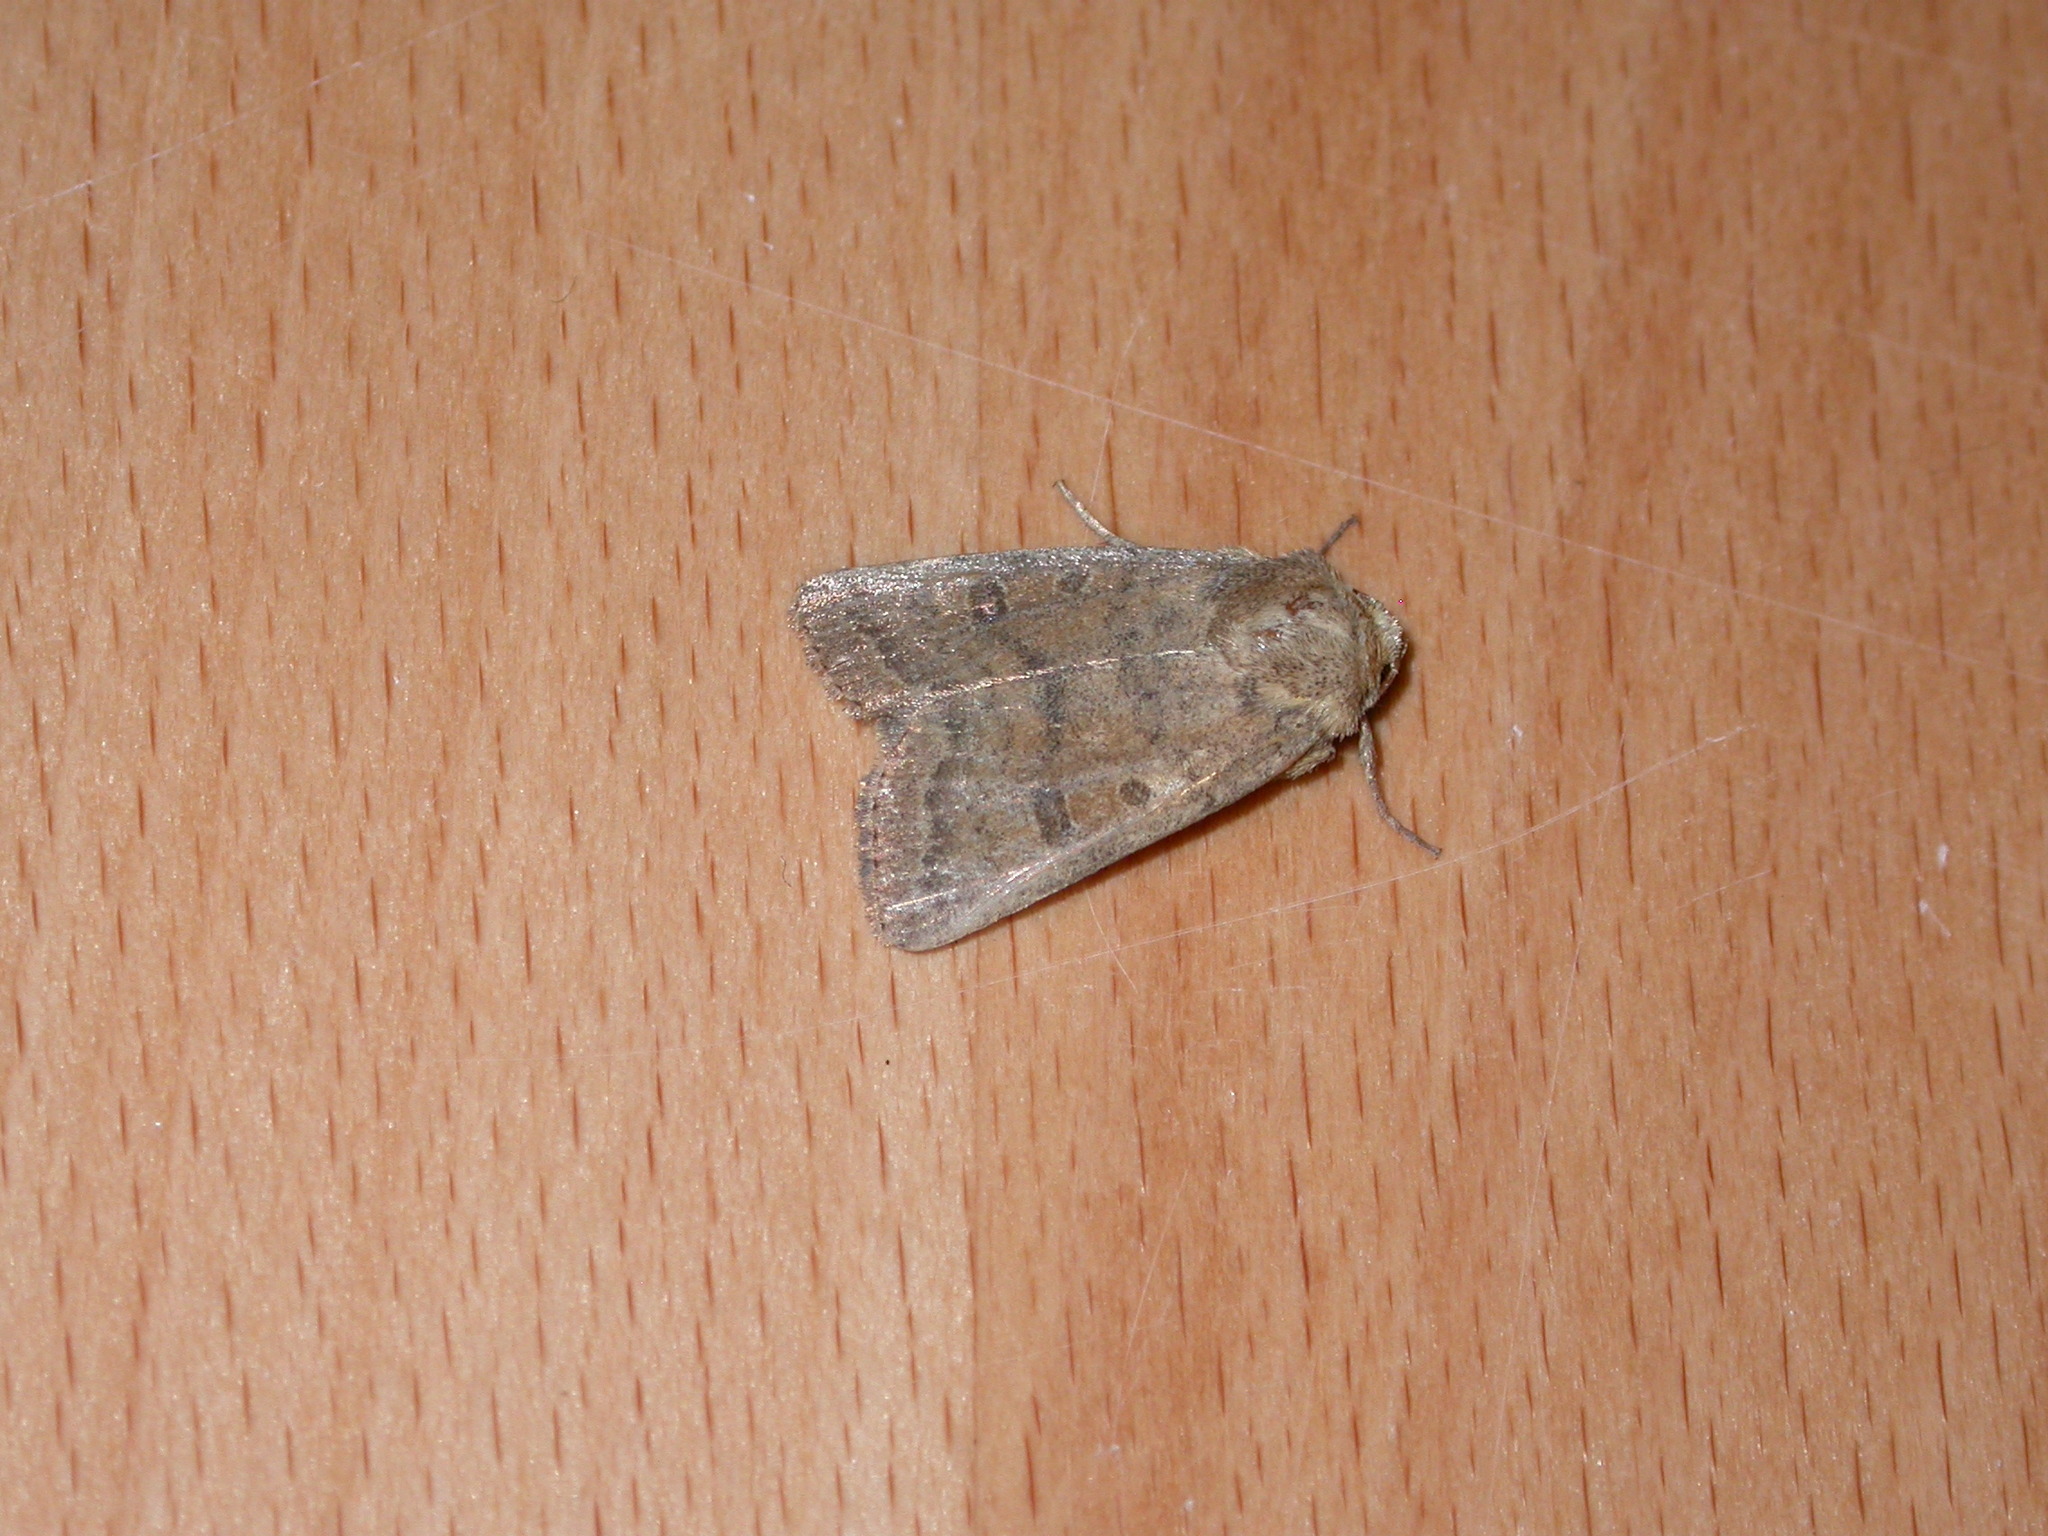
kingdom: Animalia
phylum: Arthropoda
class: Insecta
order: Lepidoptera
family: Noctuidae
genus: Hoplodrina
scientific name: Hoplodrina octogenaria
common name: Uncertain
